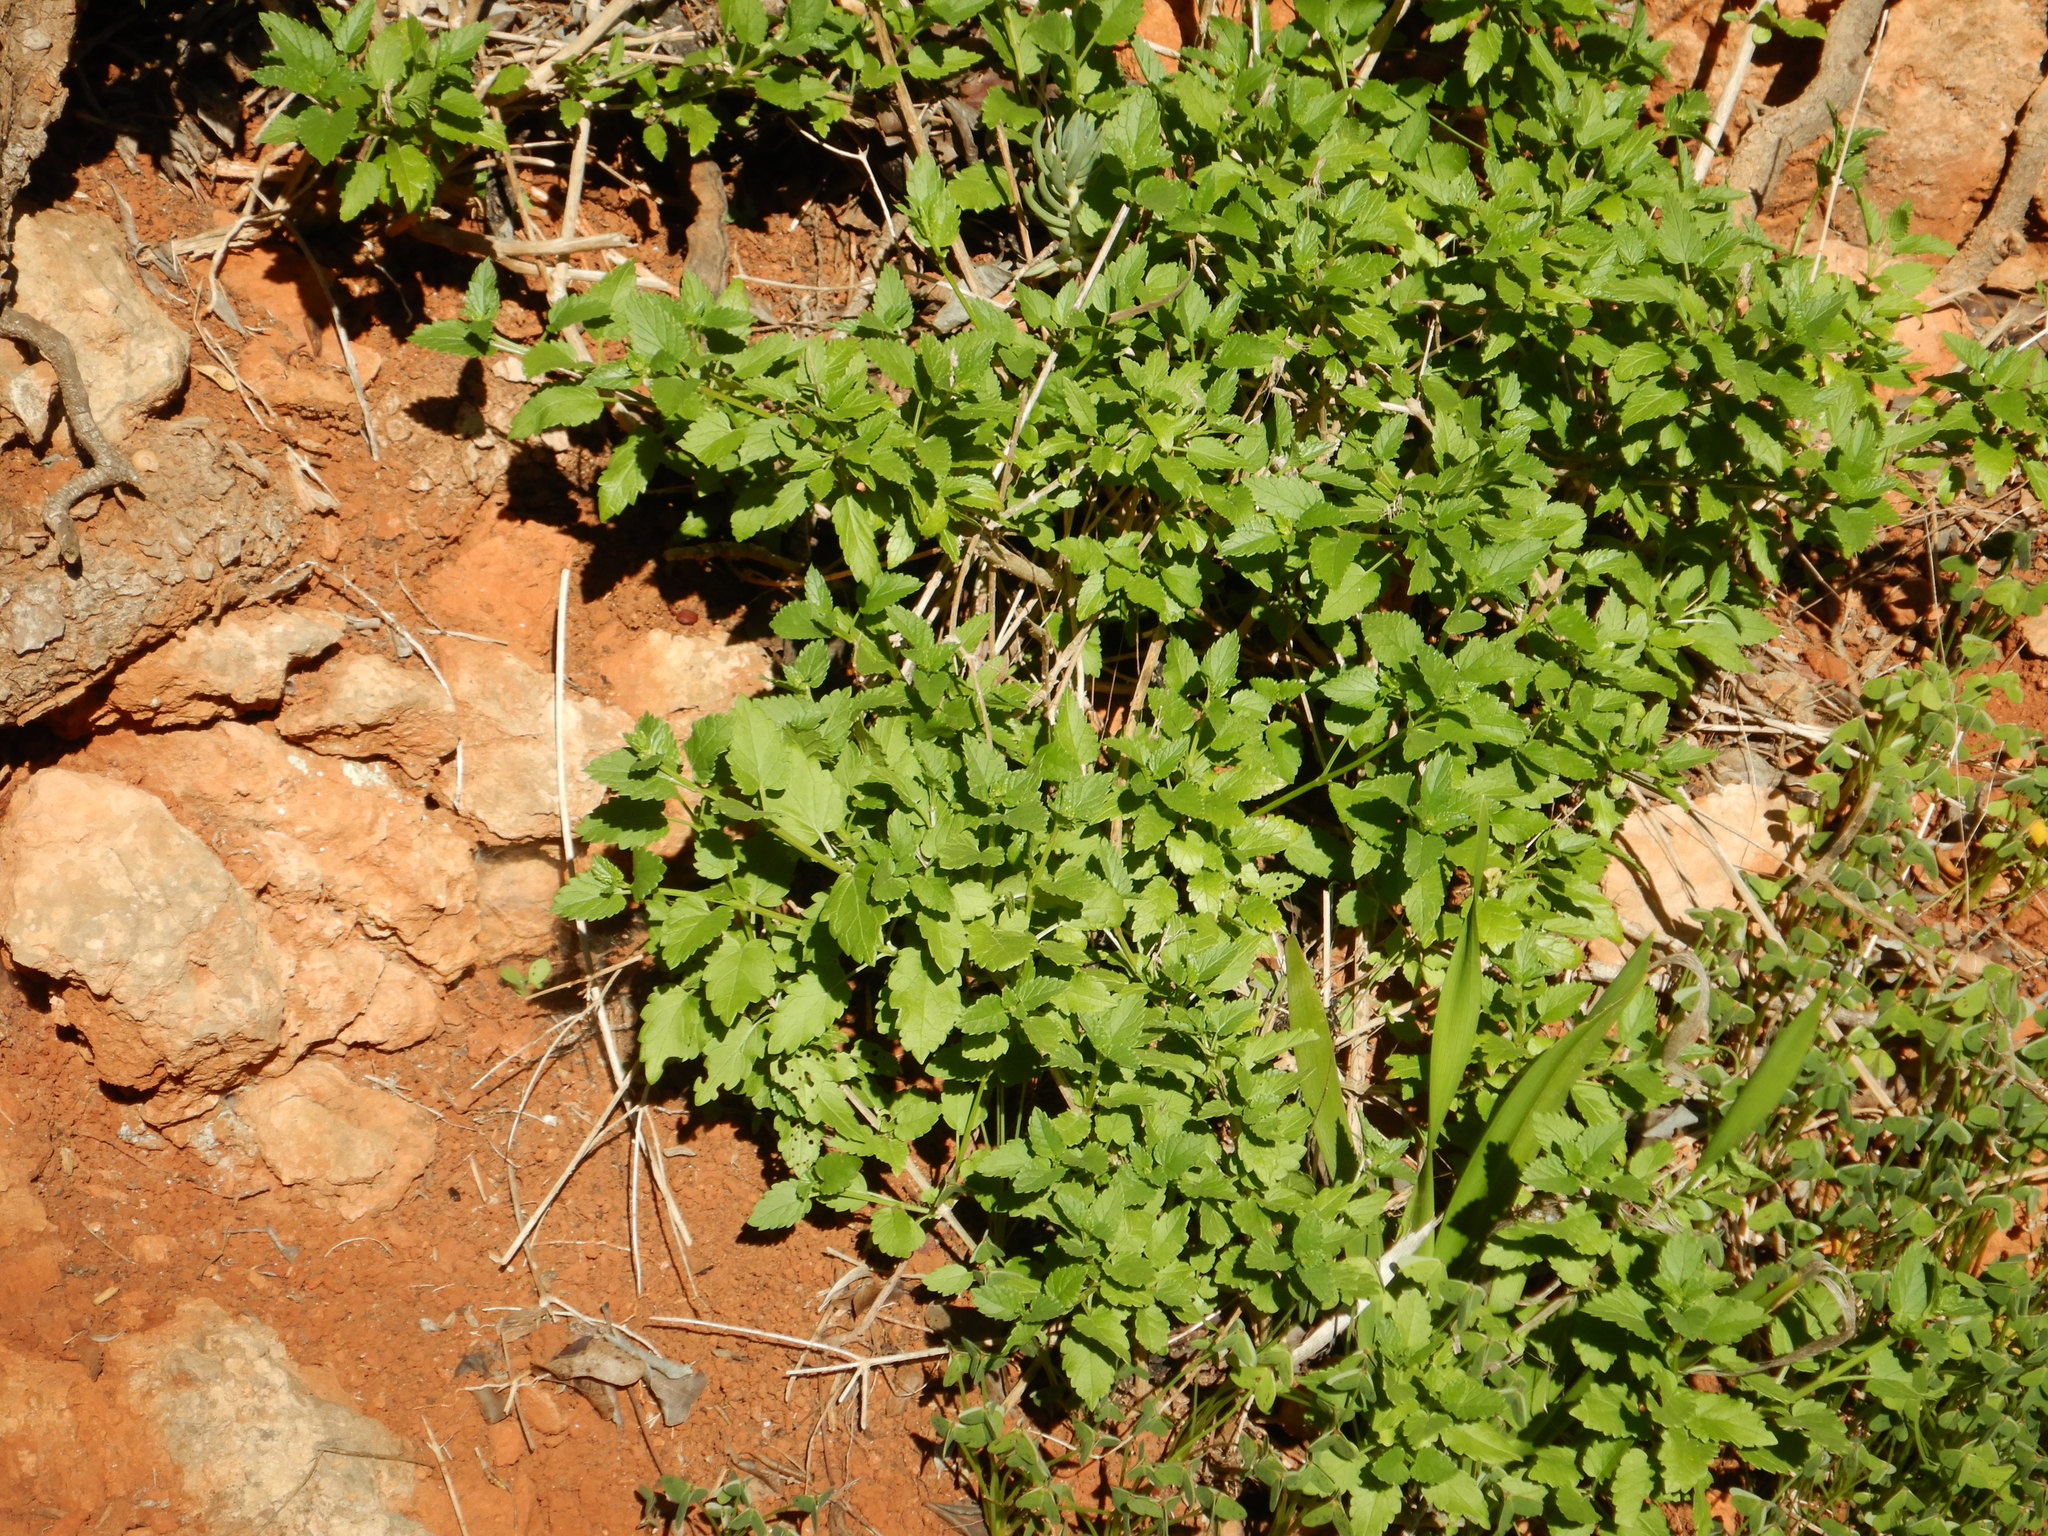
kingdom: Plantae
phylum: Tracheophyta
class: Magnoliopsida
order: Lamiales
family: Lamiaceae
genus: Prasium
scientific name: Prasium majus
